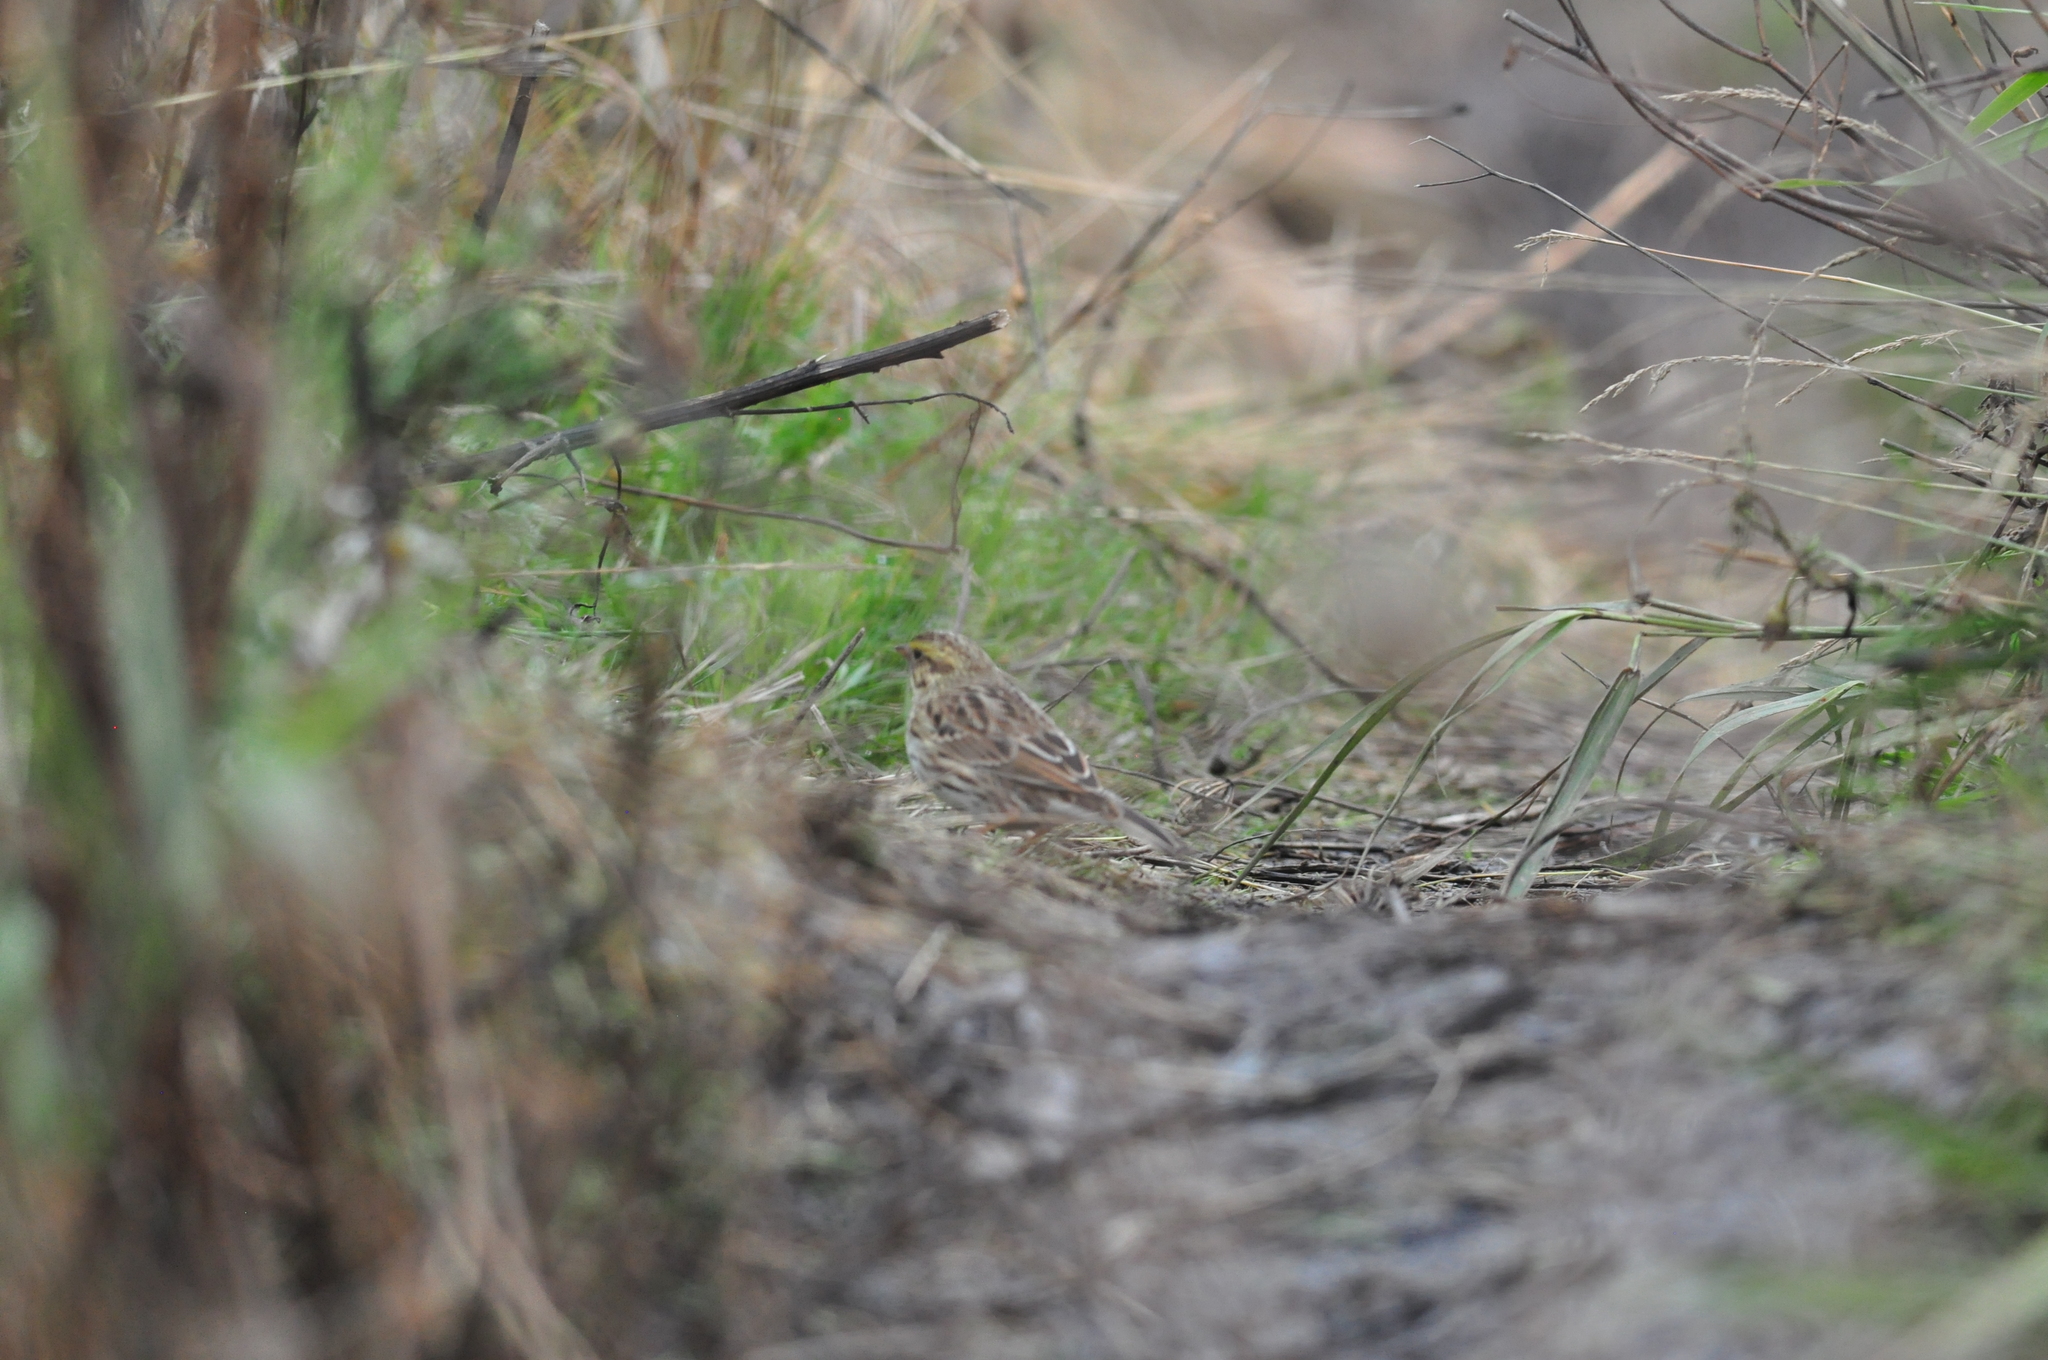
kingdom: Animalia
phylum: Chordata
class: Aves
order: Passeriformes
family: Passerellidae
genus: Passerculus
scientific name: Passerculus sandwichensis
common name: Savannah sparrow
